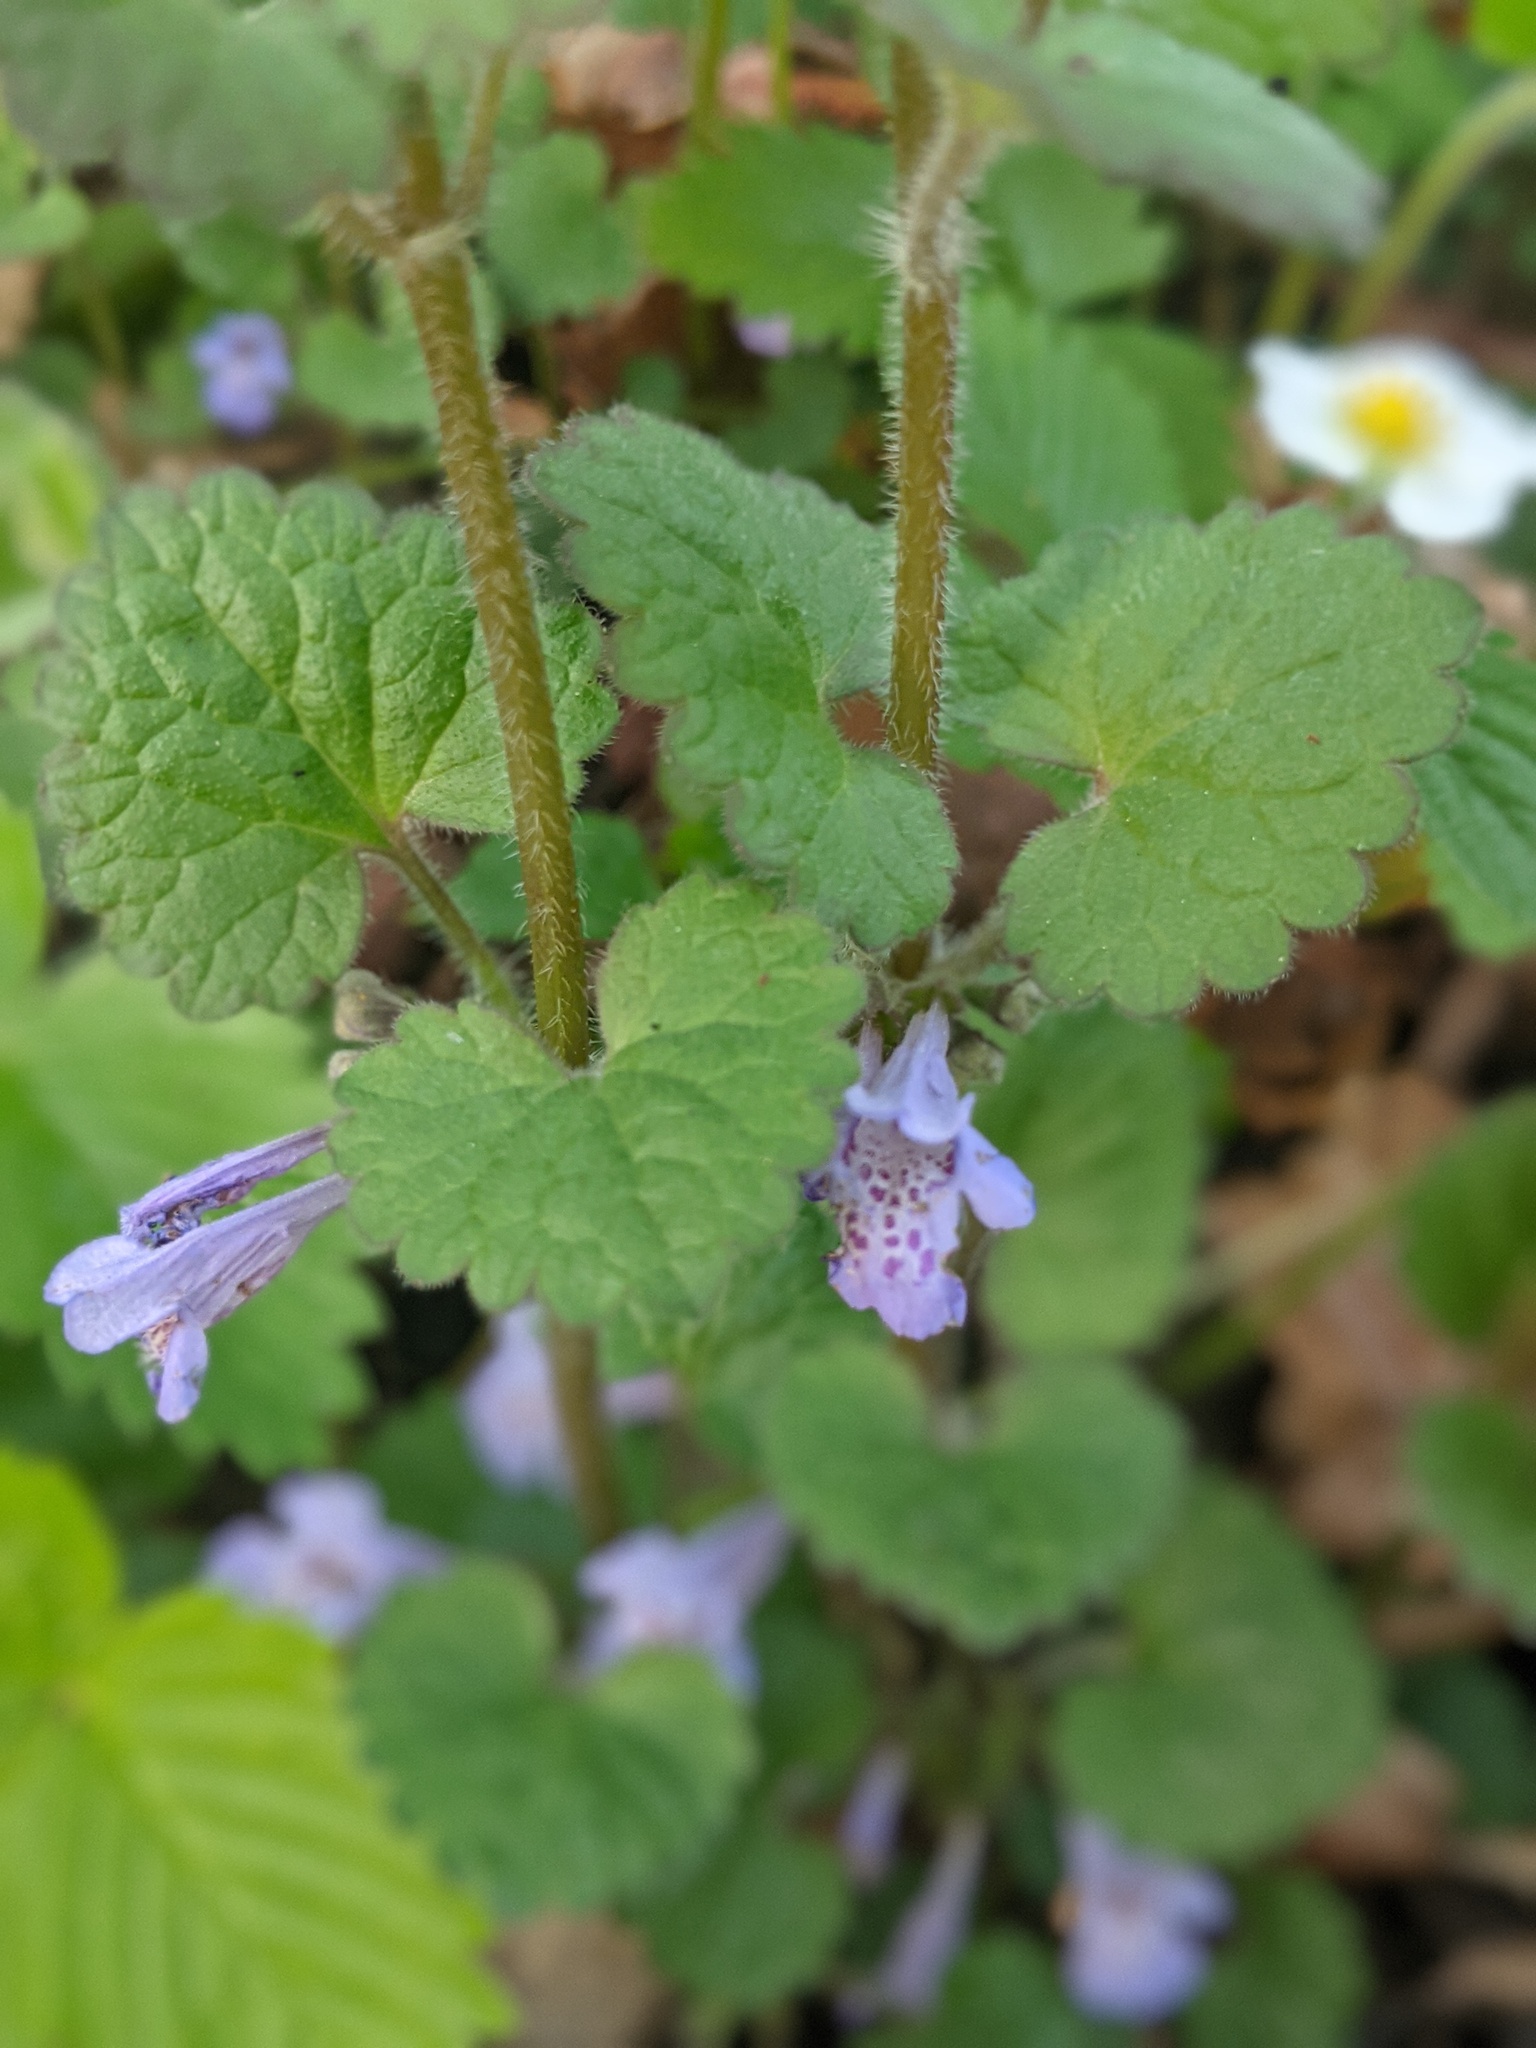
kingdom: Plantae
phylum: Tracheophyta
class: Magnoliopsida
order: Lamiales
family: Lamiaceae
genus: Glechoma
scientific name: Glechoma hederacea
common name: Ground ivy
